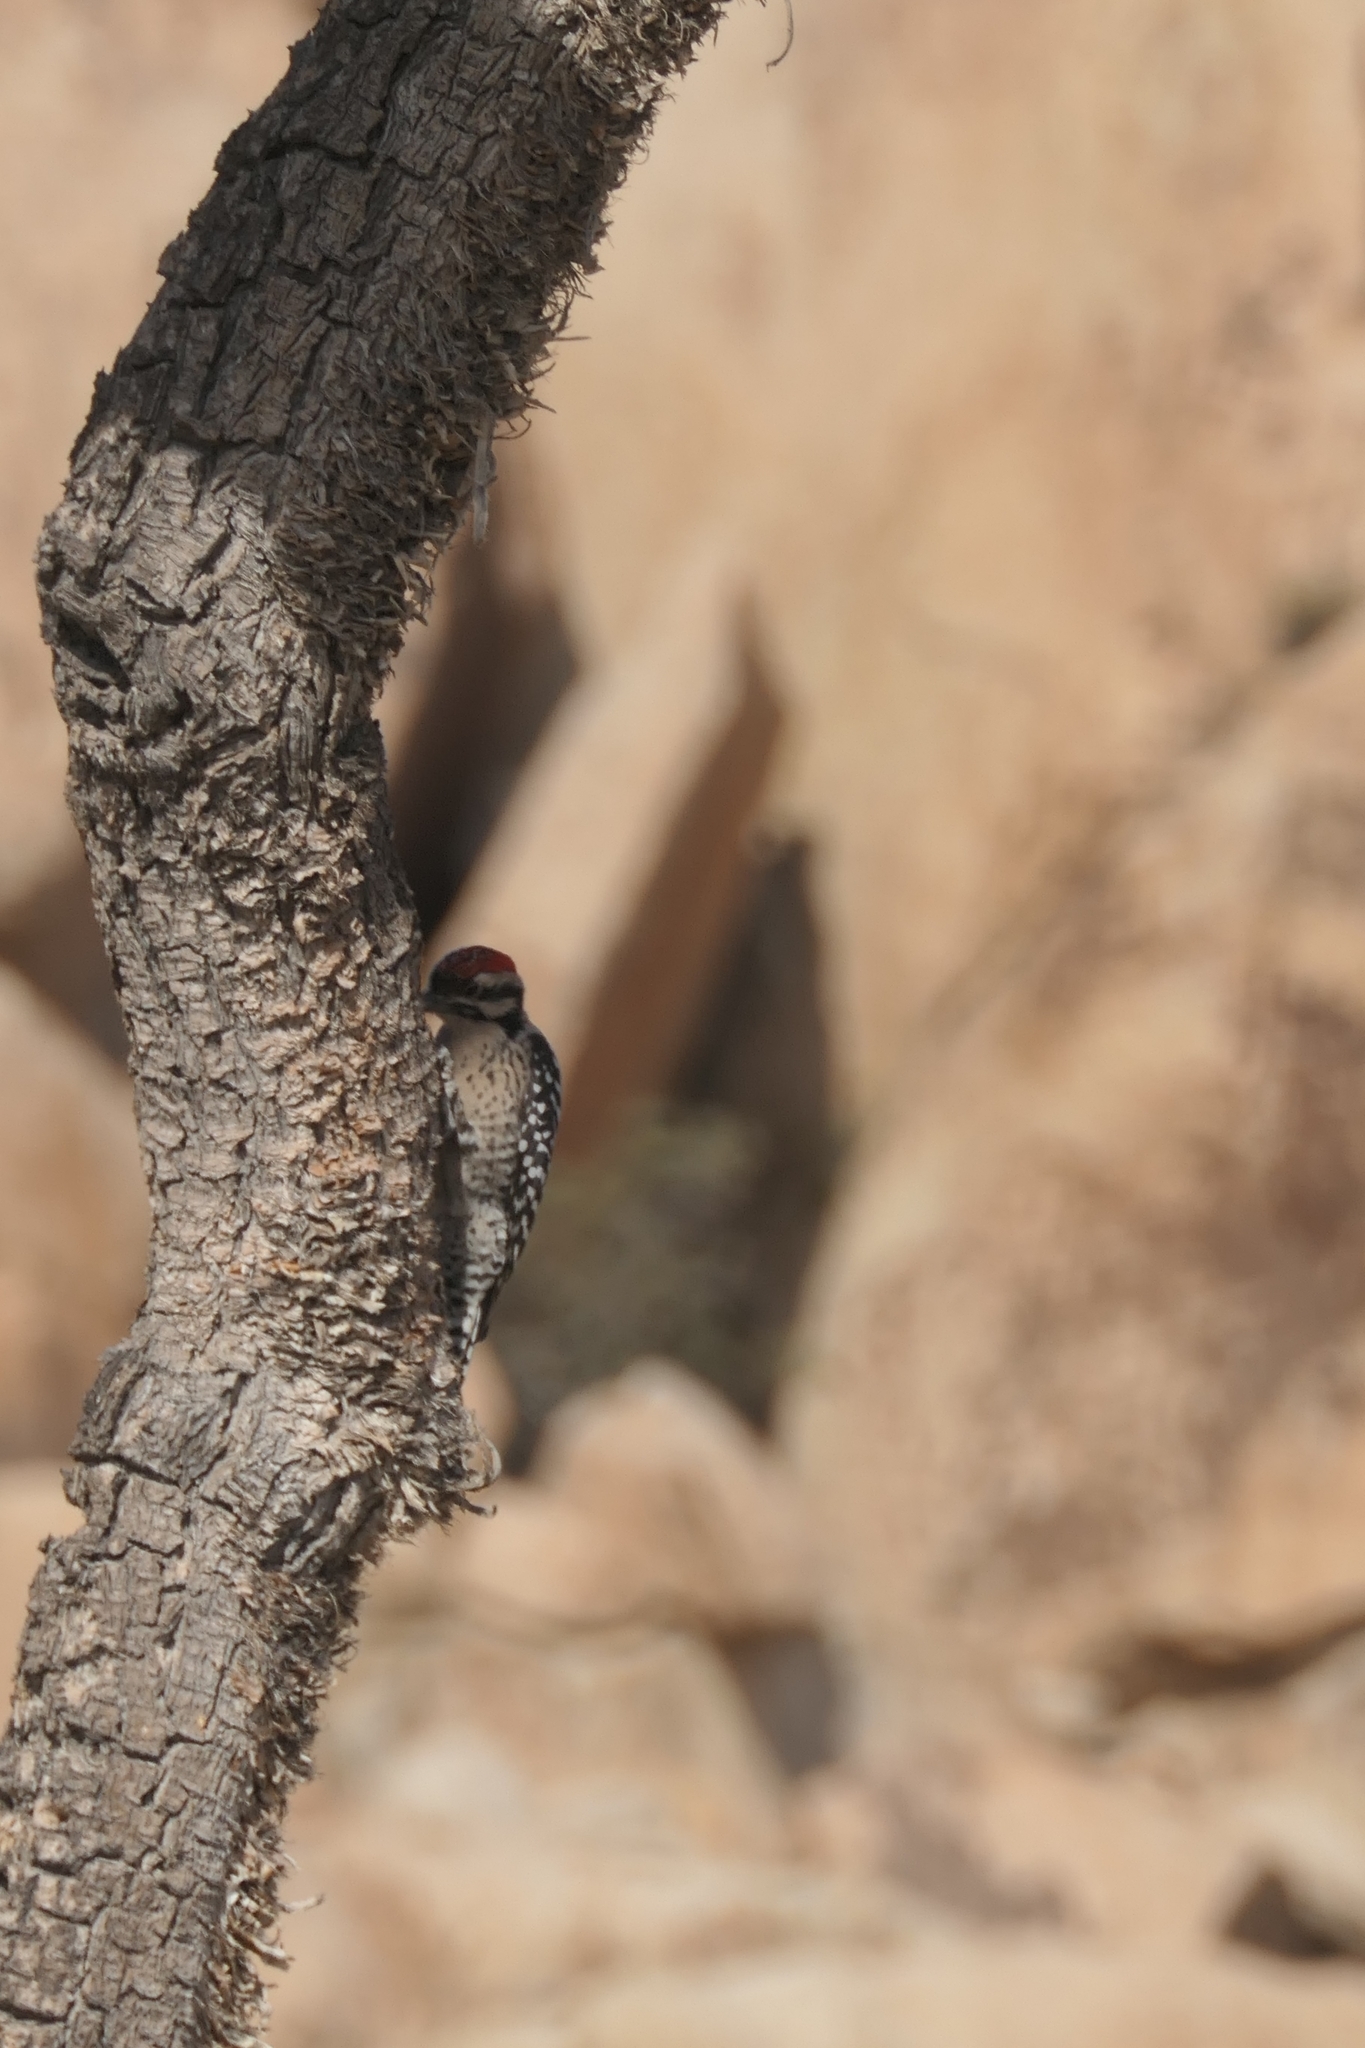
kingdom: Animalia
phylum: Chordata
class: Aves
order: Piciformes
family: Picidae
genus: Dryobates
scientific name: Dryobates scalaris
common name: Ladder-backed woodpecker
